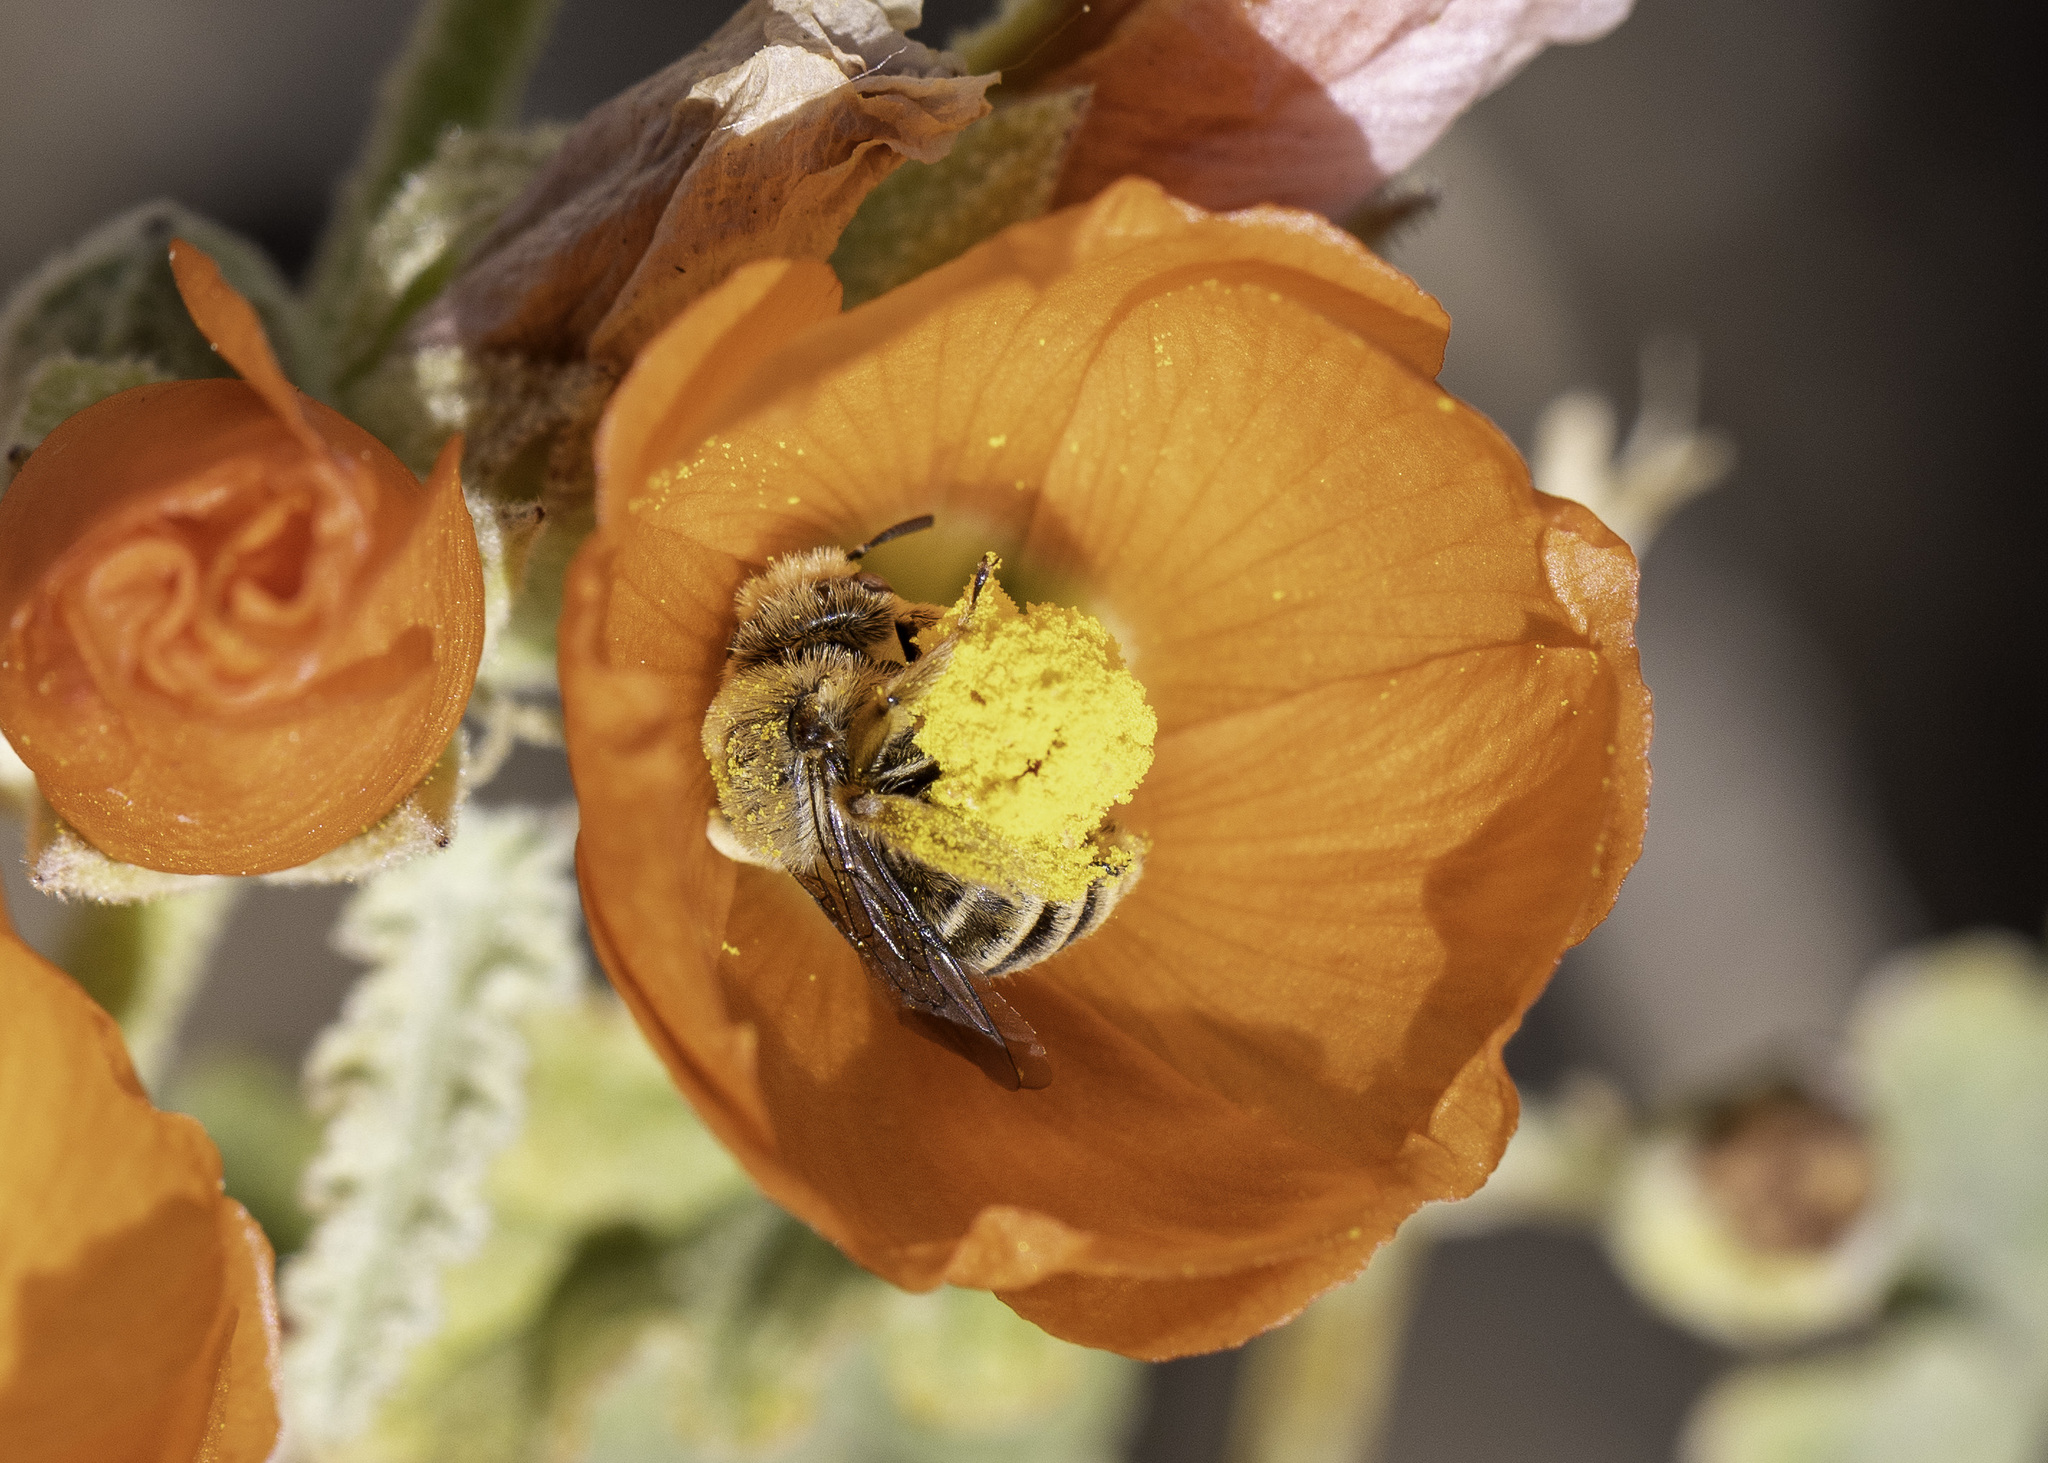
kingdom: Animalia
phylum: Arthropoda
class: Insecta
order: Hymenoptera
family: Apidae
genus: Diadasia
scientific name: Diadasia
